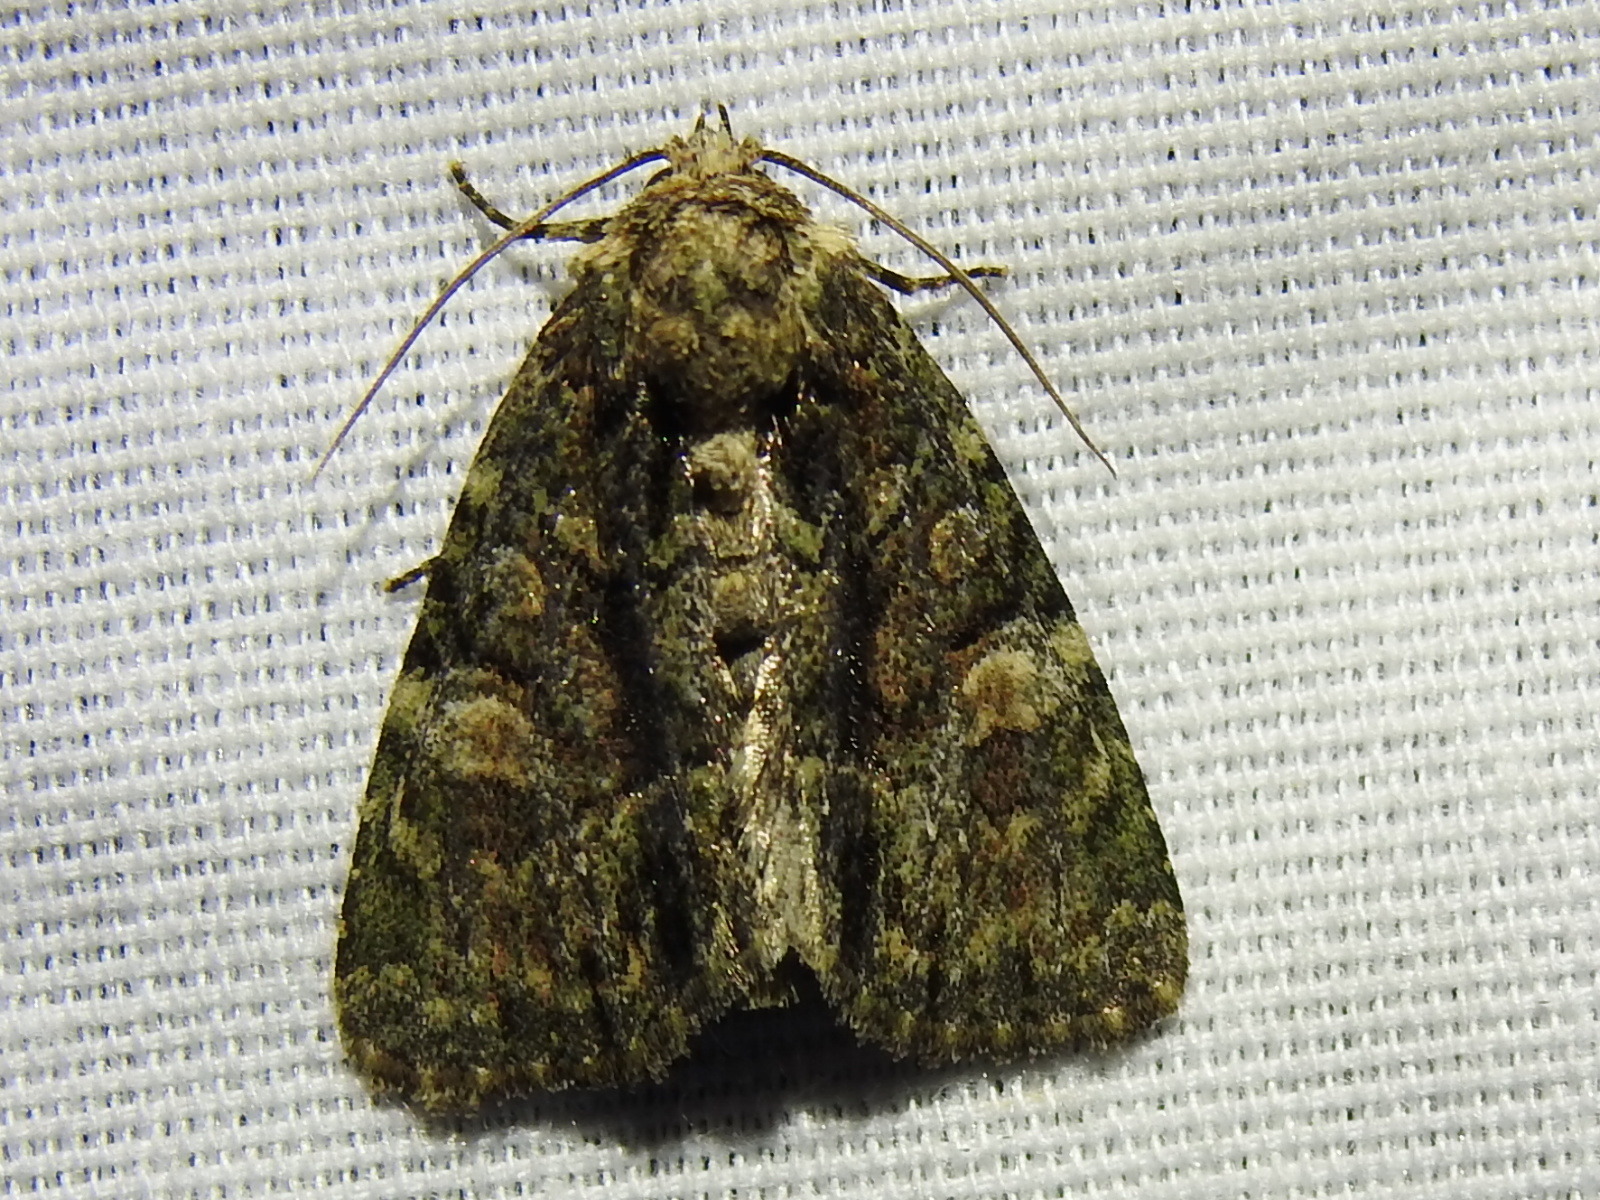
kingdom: Animalia
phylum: Arthropoda
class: Insecta
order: Lepidoptera
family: Noctuidae
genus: Phosphila
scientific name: Phosphila miselioides
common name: Spotted phosphila moth
